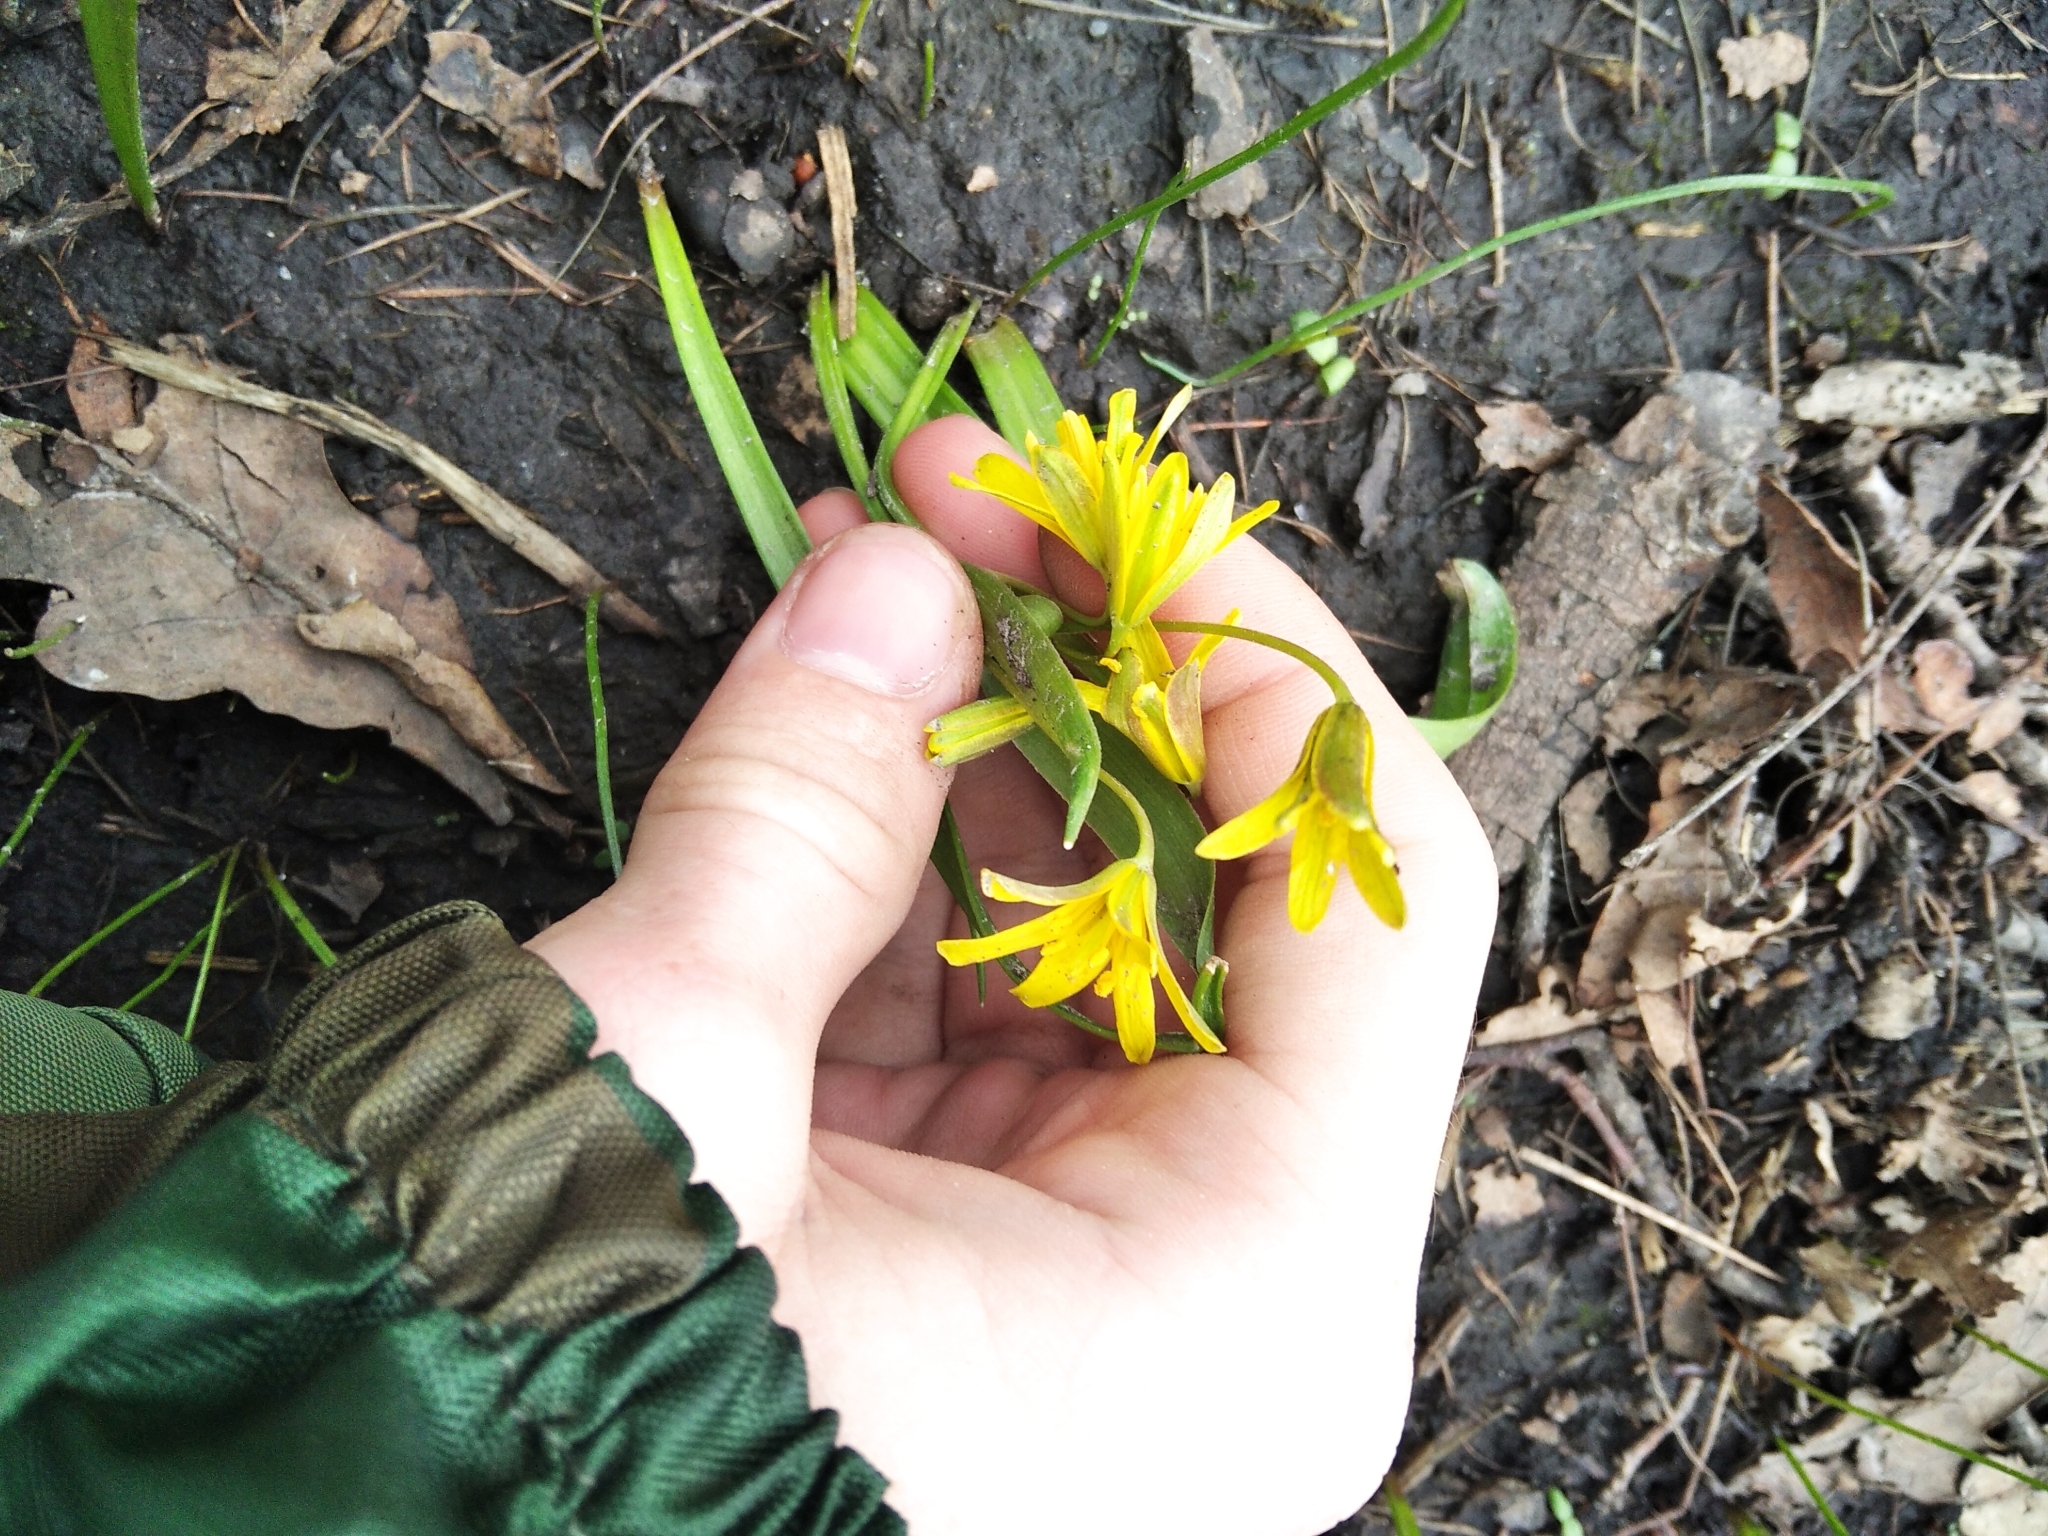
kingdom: Plantae
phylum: Tracheophyta
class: Liliopsida
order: Liliales
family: Liliaceae
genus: Gagea
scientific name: Gagea lutea
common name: Yellow star-of-bethlehem
